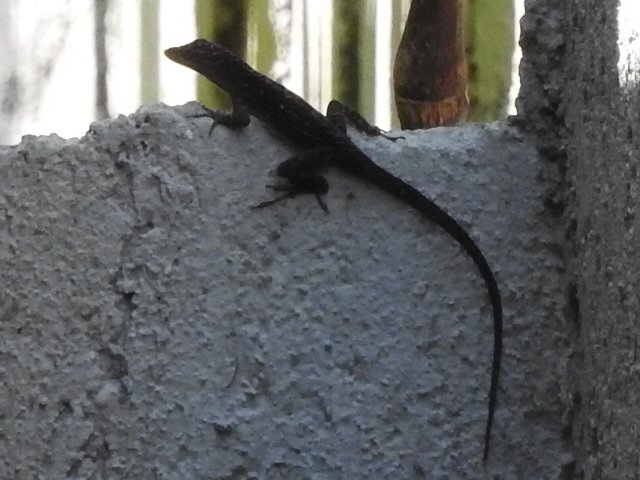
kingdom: Animalia
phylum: Chordata
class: Squamata
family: Dactyloidae
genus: Anolis
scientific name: Anolis sagrei
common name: Brown anole
